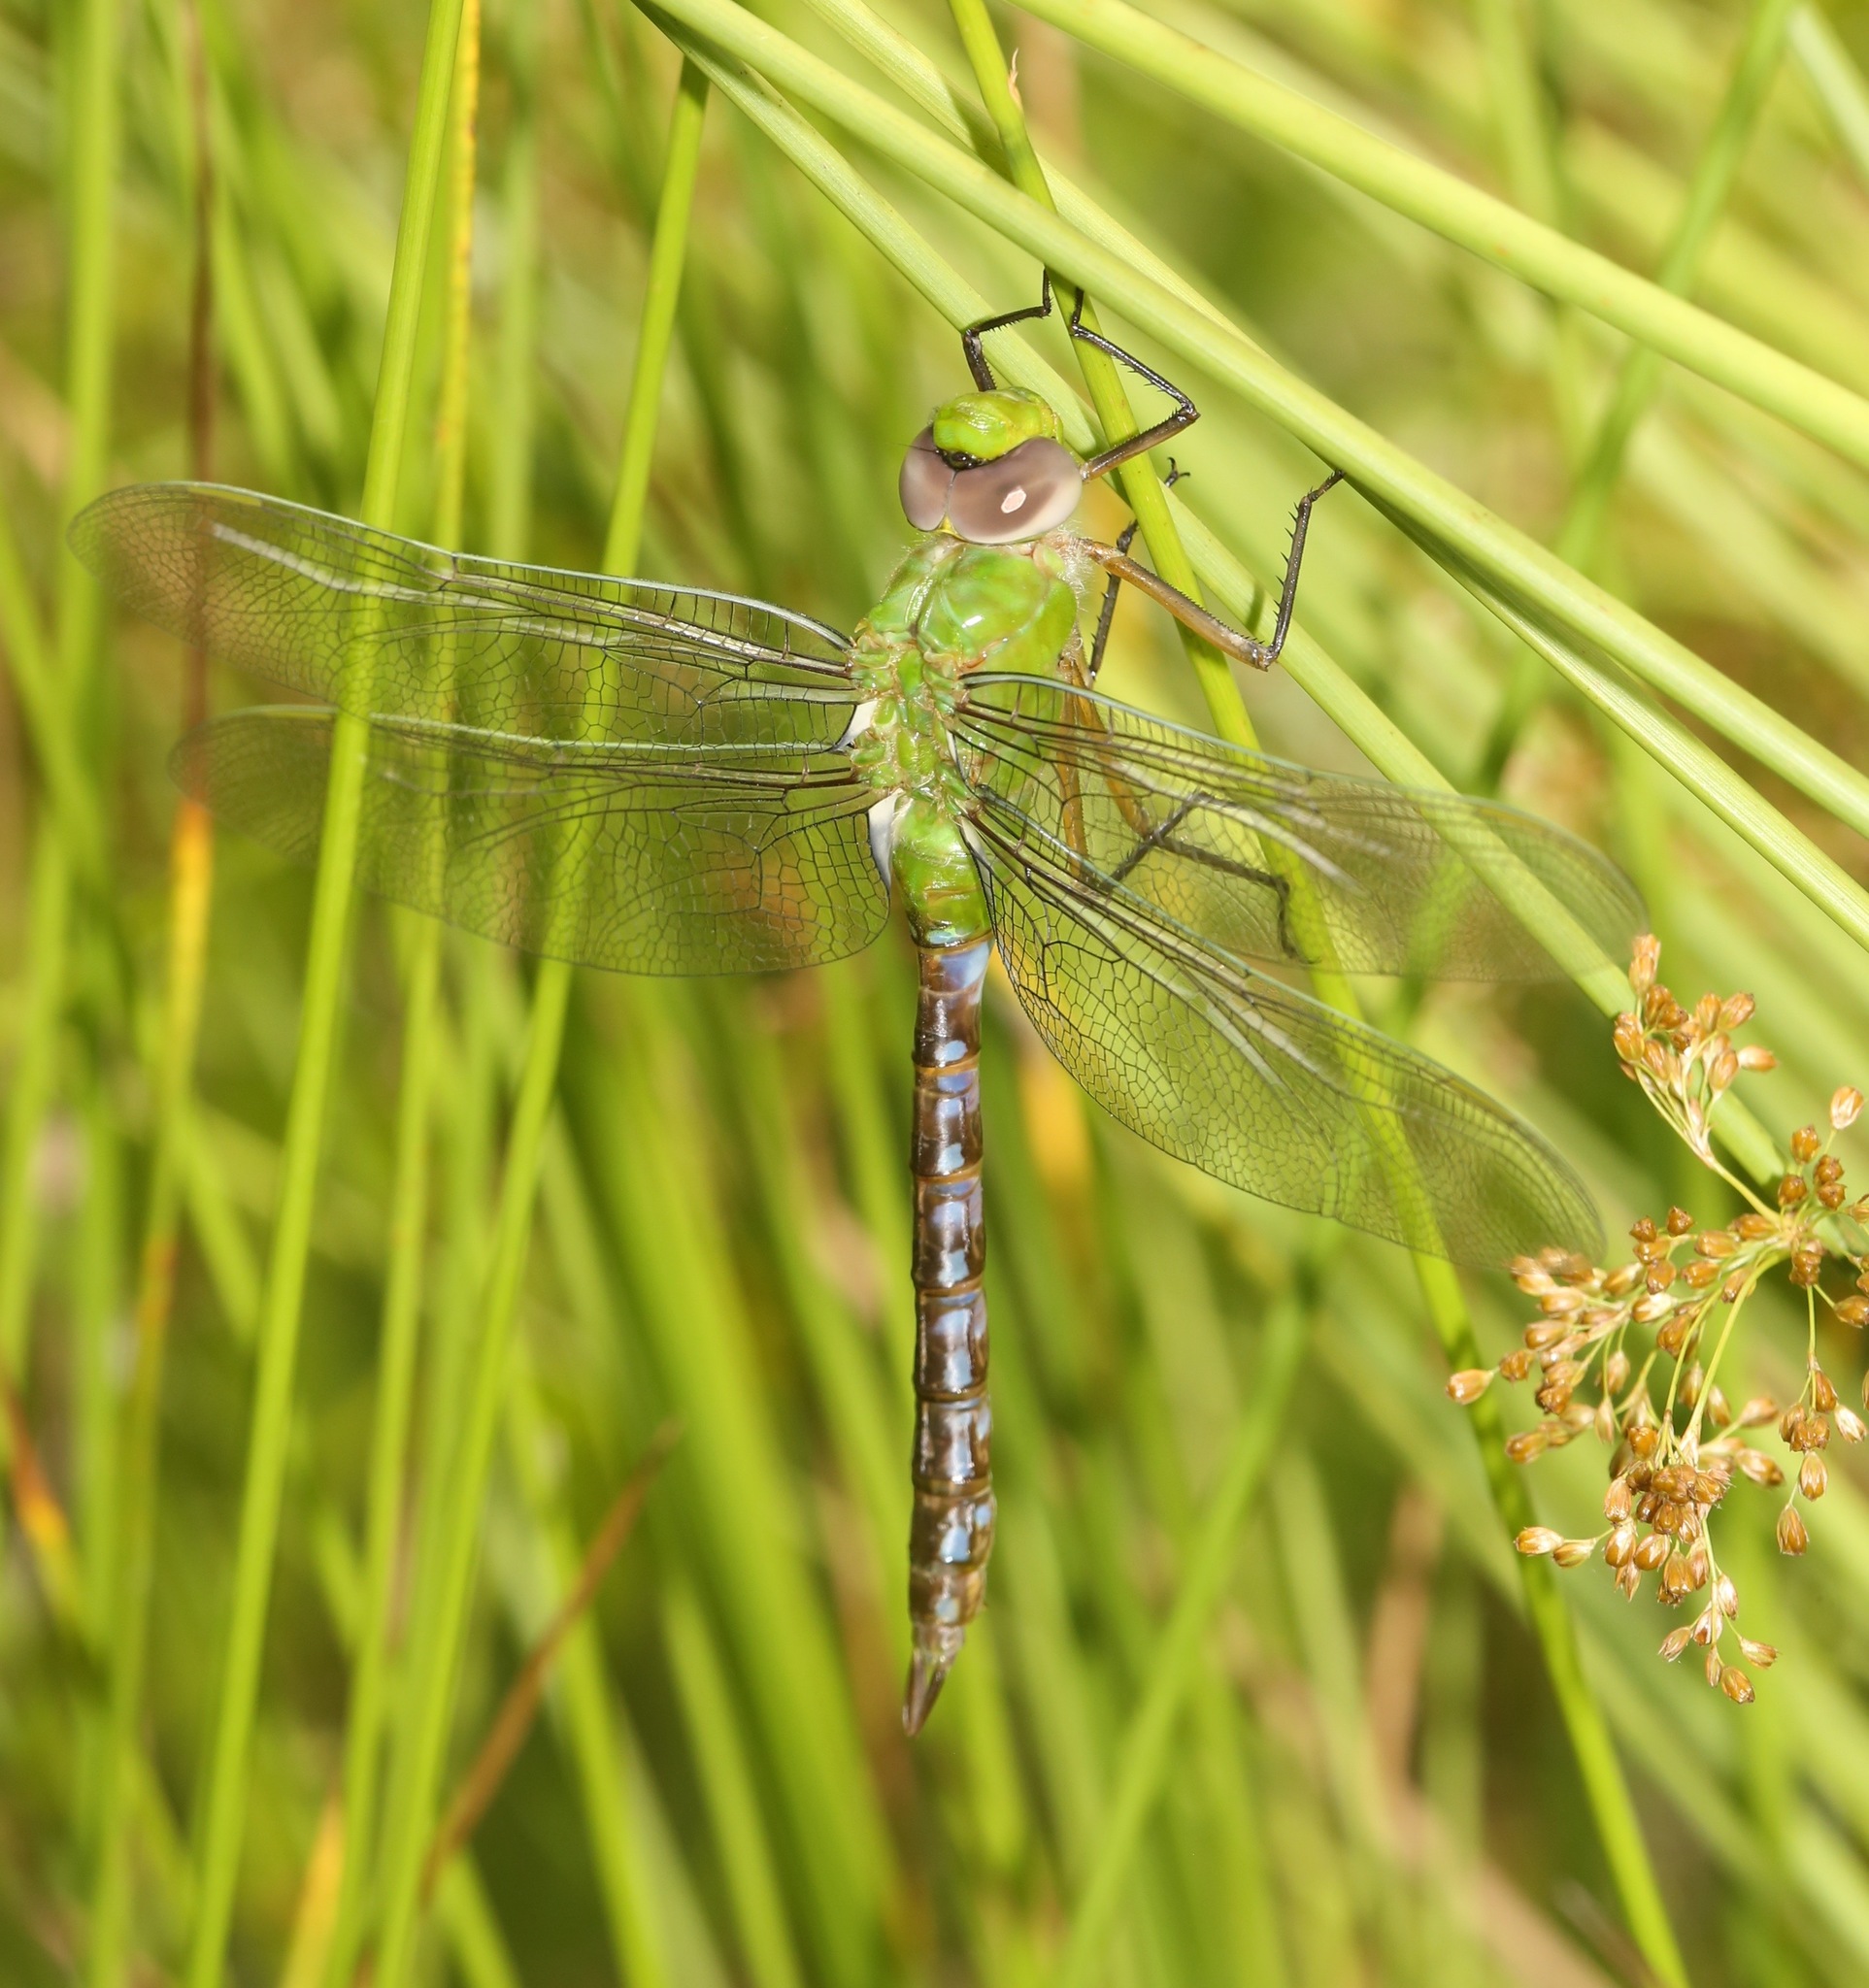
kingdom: Animalia
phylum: Arthropoda
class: Insecta
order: Odonata
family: Aeshnidae
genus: Anax
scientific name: Anax longipes
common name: Comet darner
